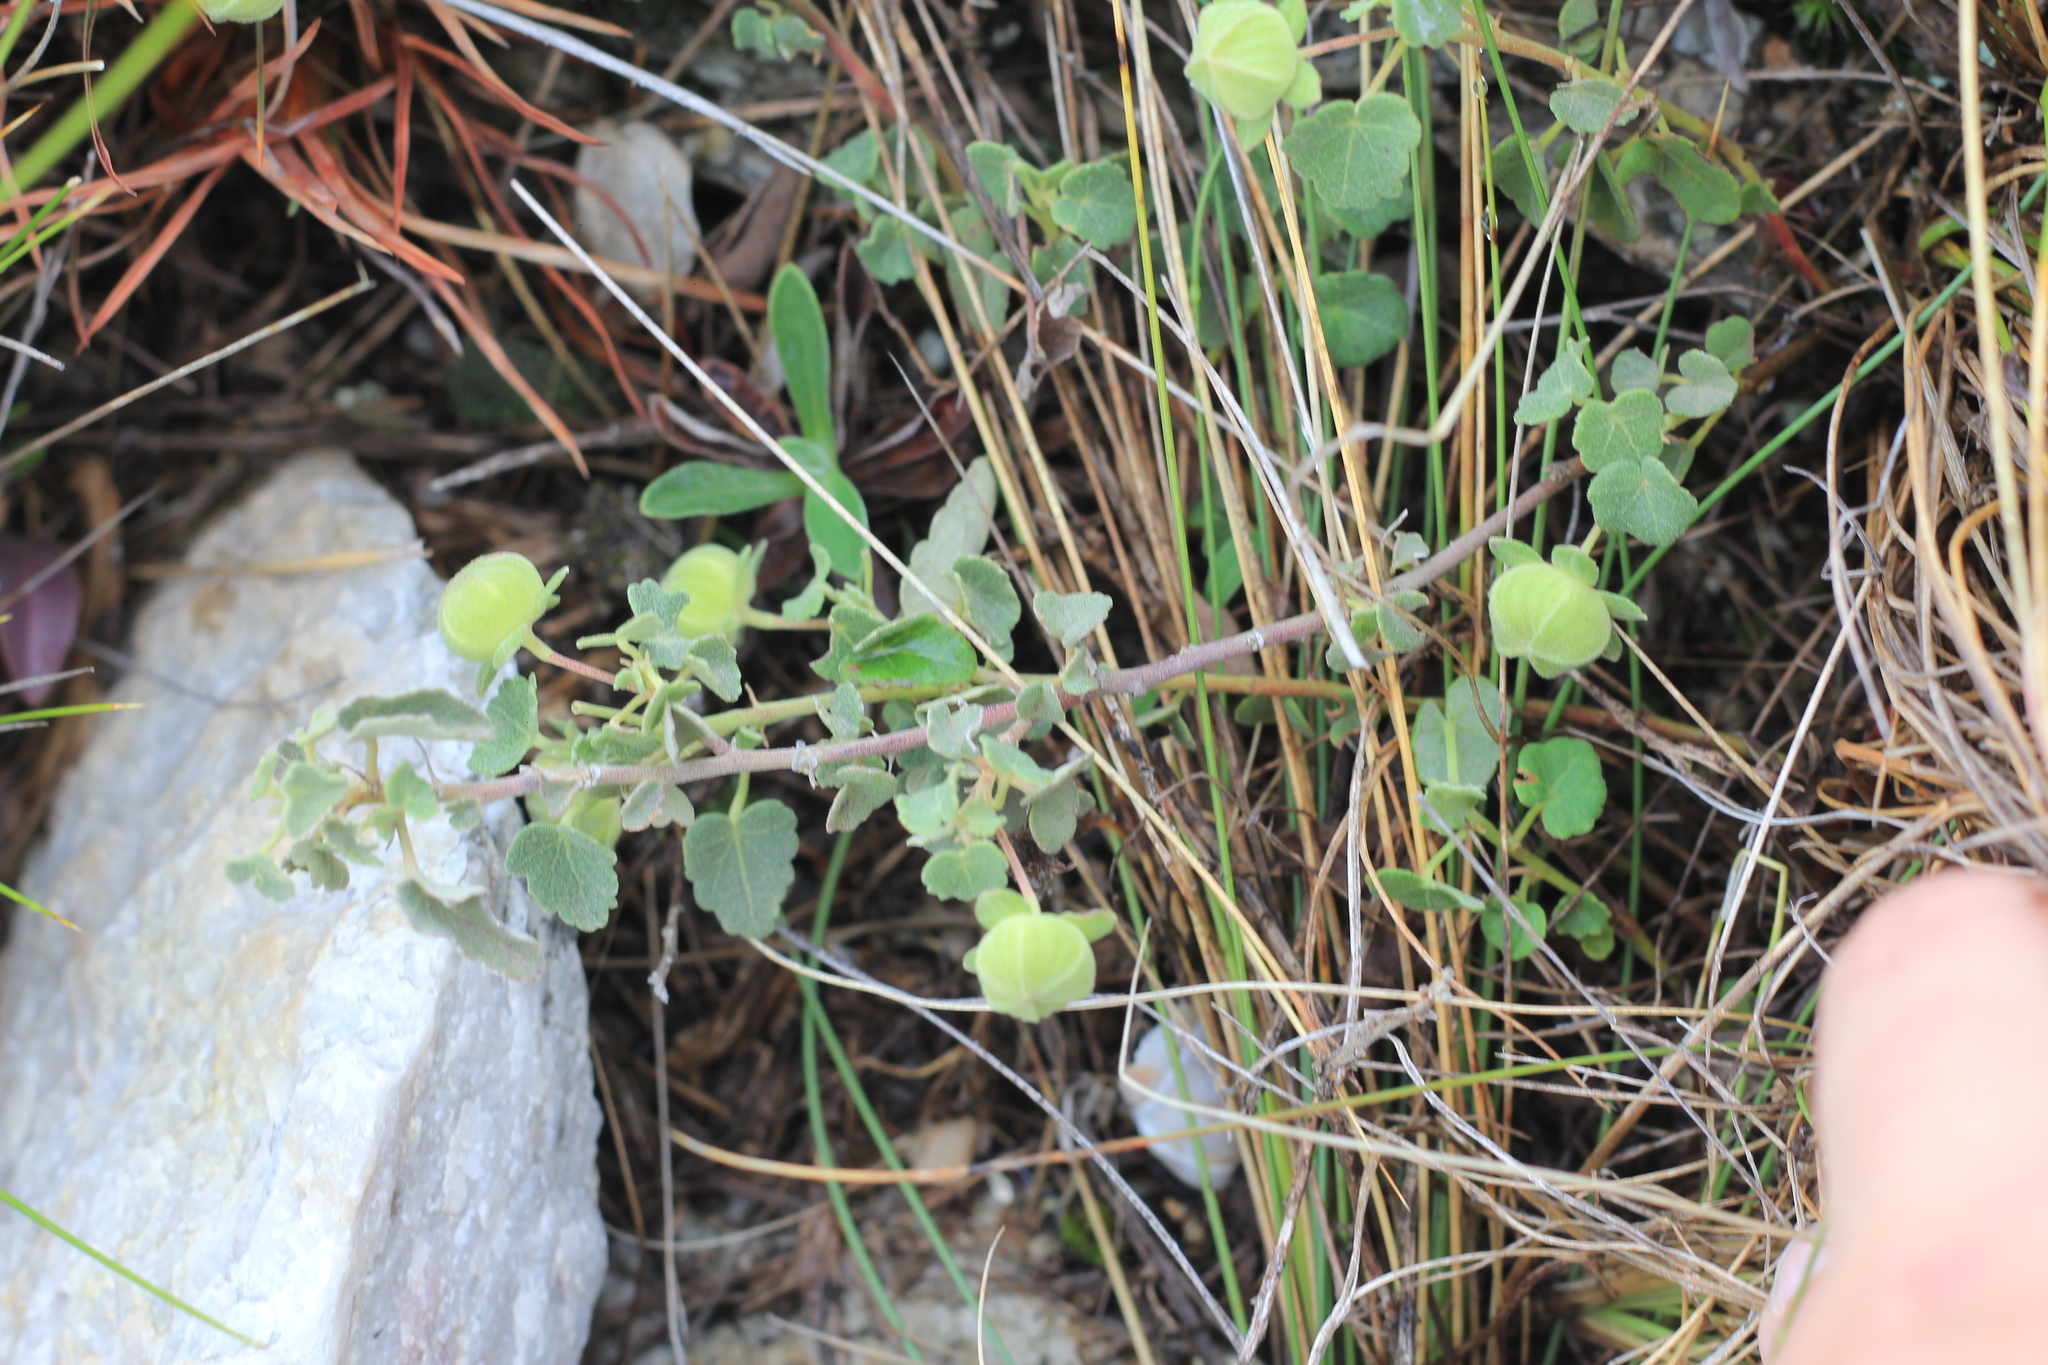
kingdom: Plantae
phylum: Tracheophyta
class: Magnoliopsida
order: Malvales
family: Malvaceae
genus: Pavonia
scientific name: Pavonia cymbalaria
